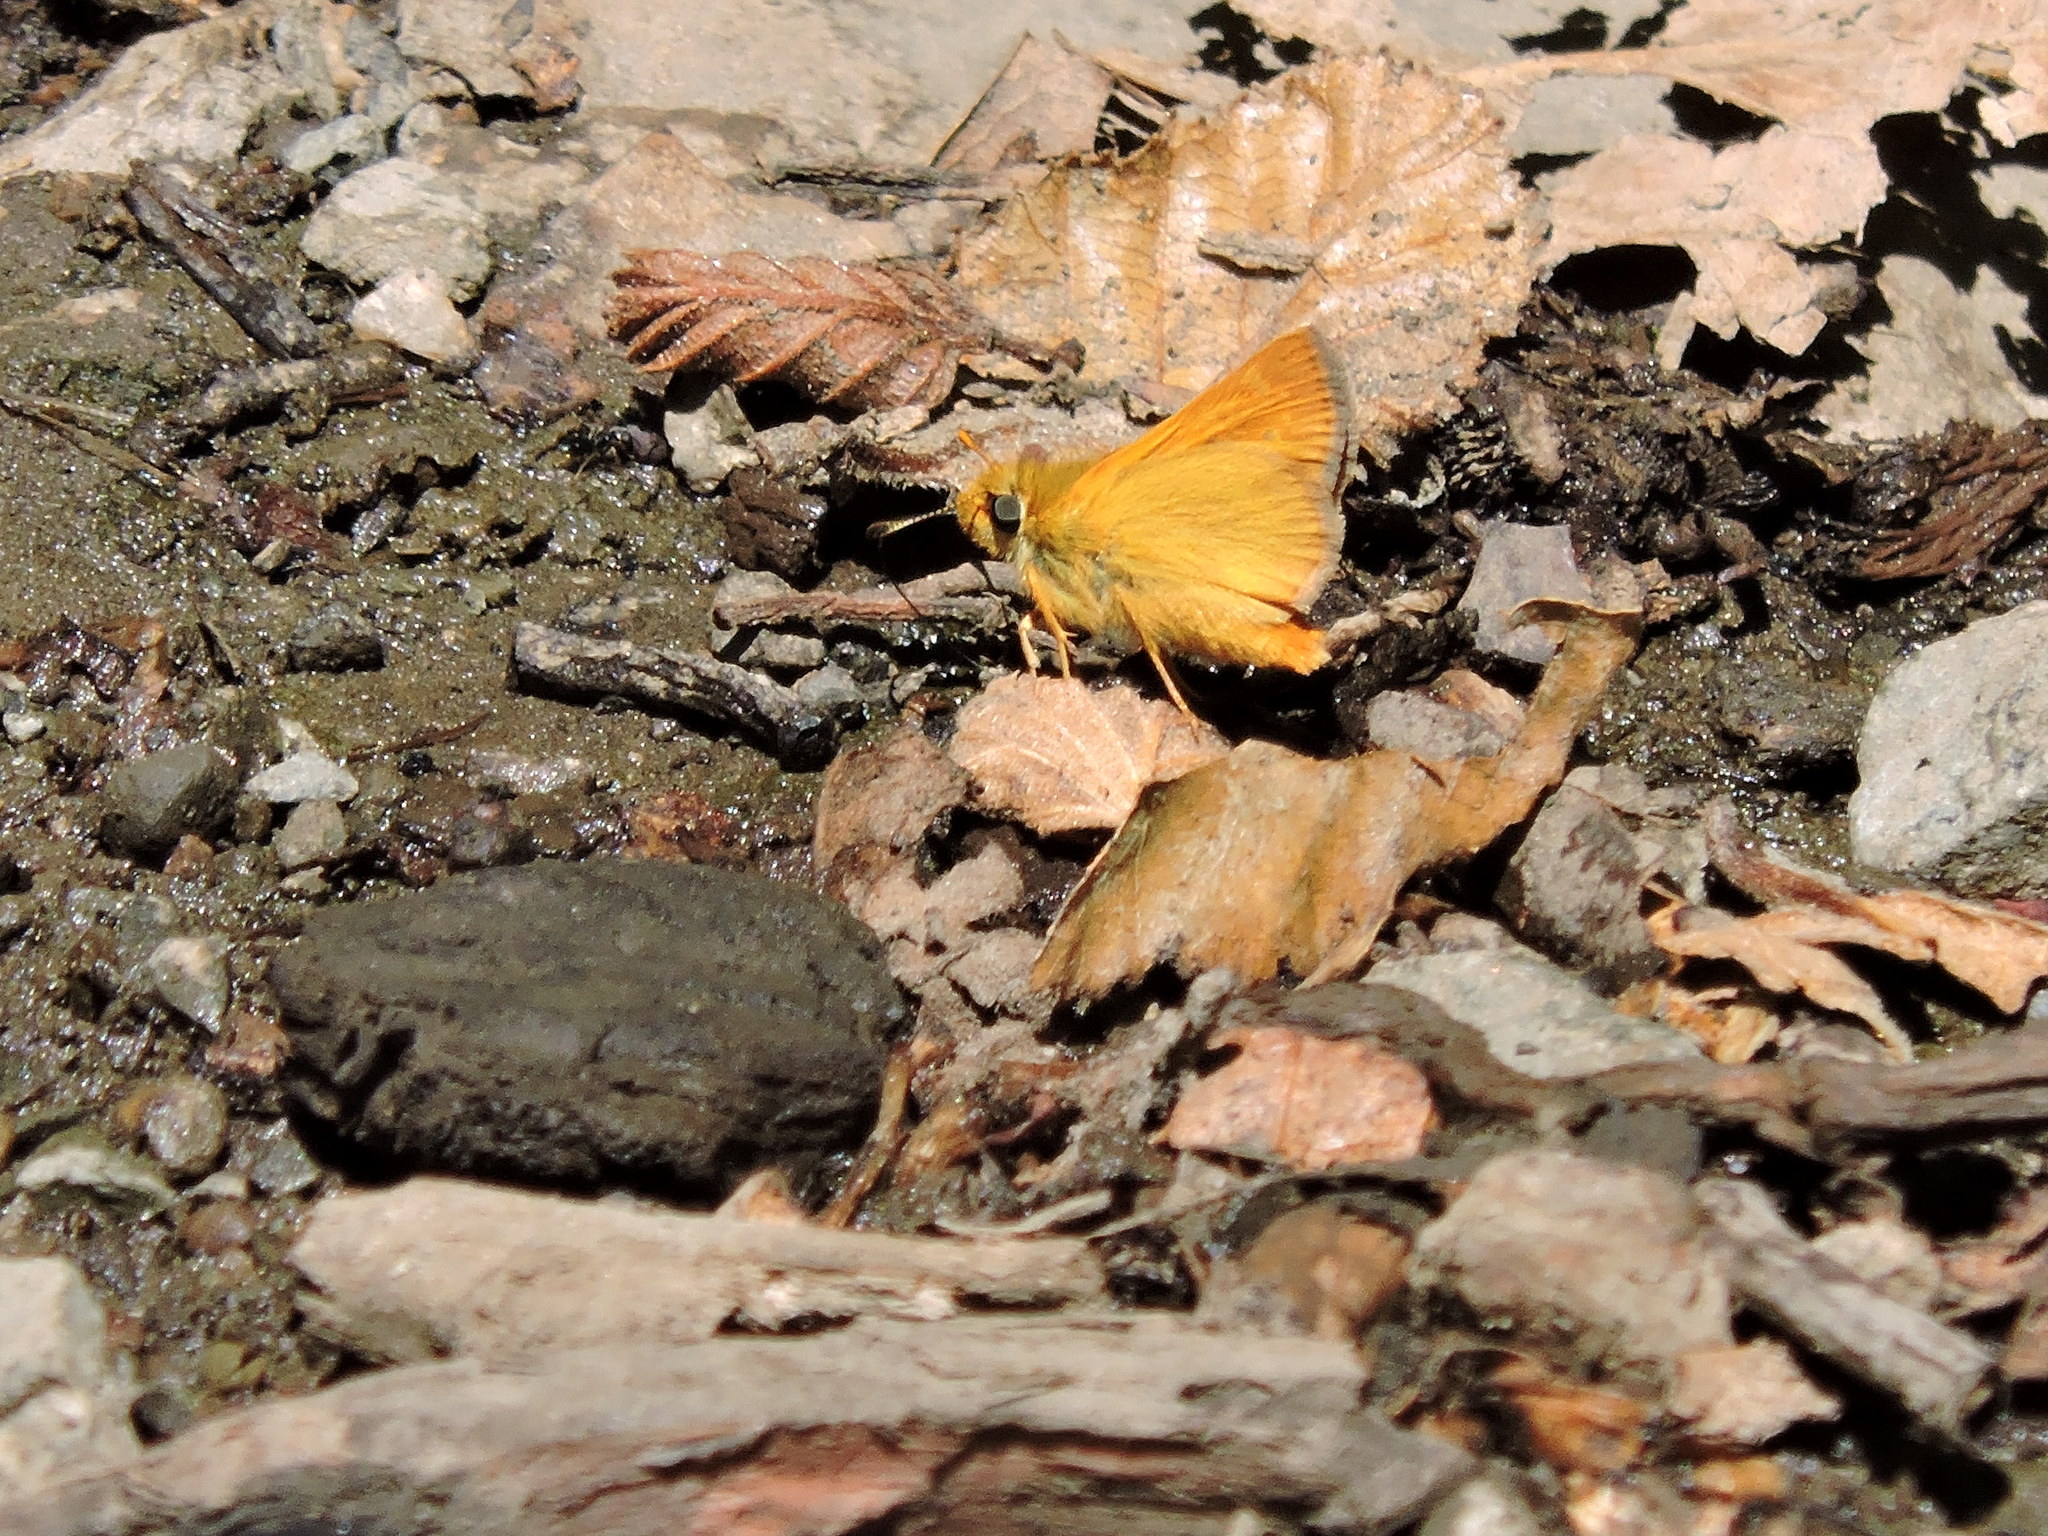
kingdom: Animalia
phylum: Arthropoda
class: Insecta
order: Lepidoptera
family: Hesperiidae
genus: Ochlodes
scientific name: Ochlodes agricola
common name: Rural skipper
